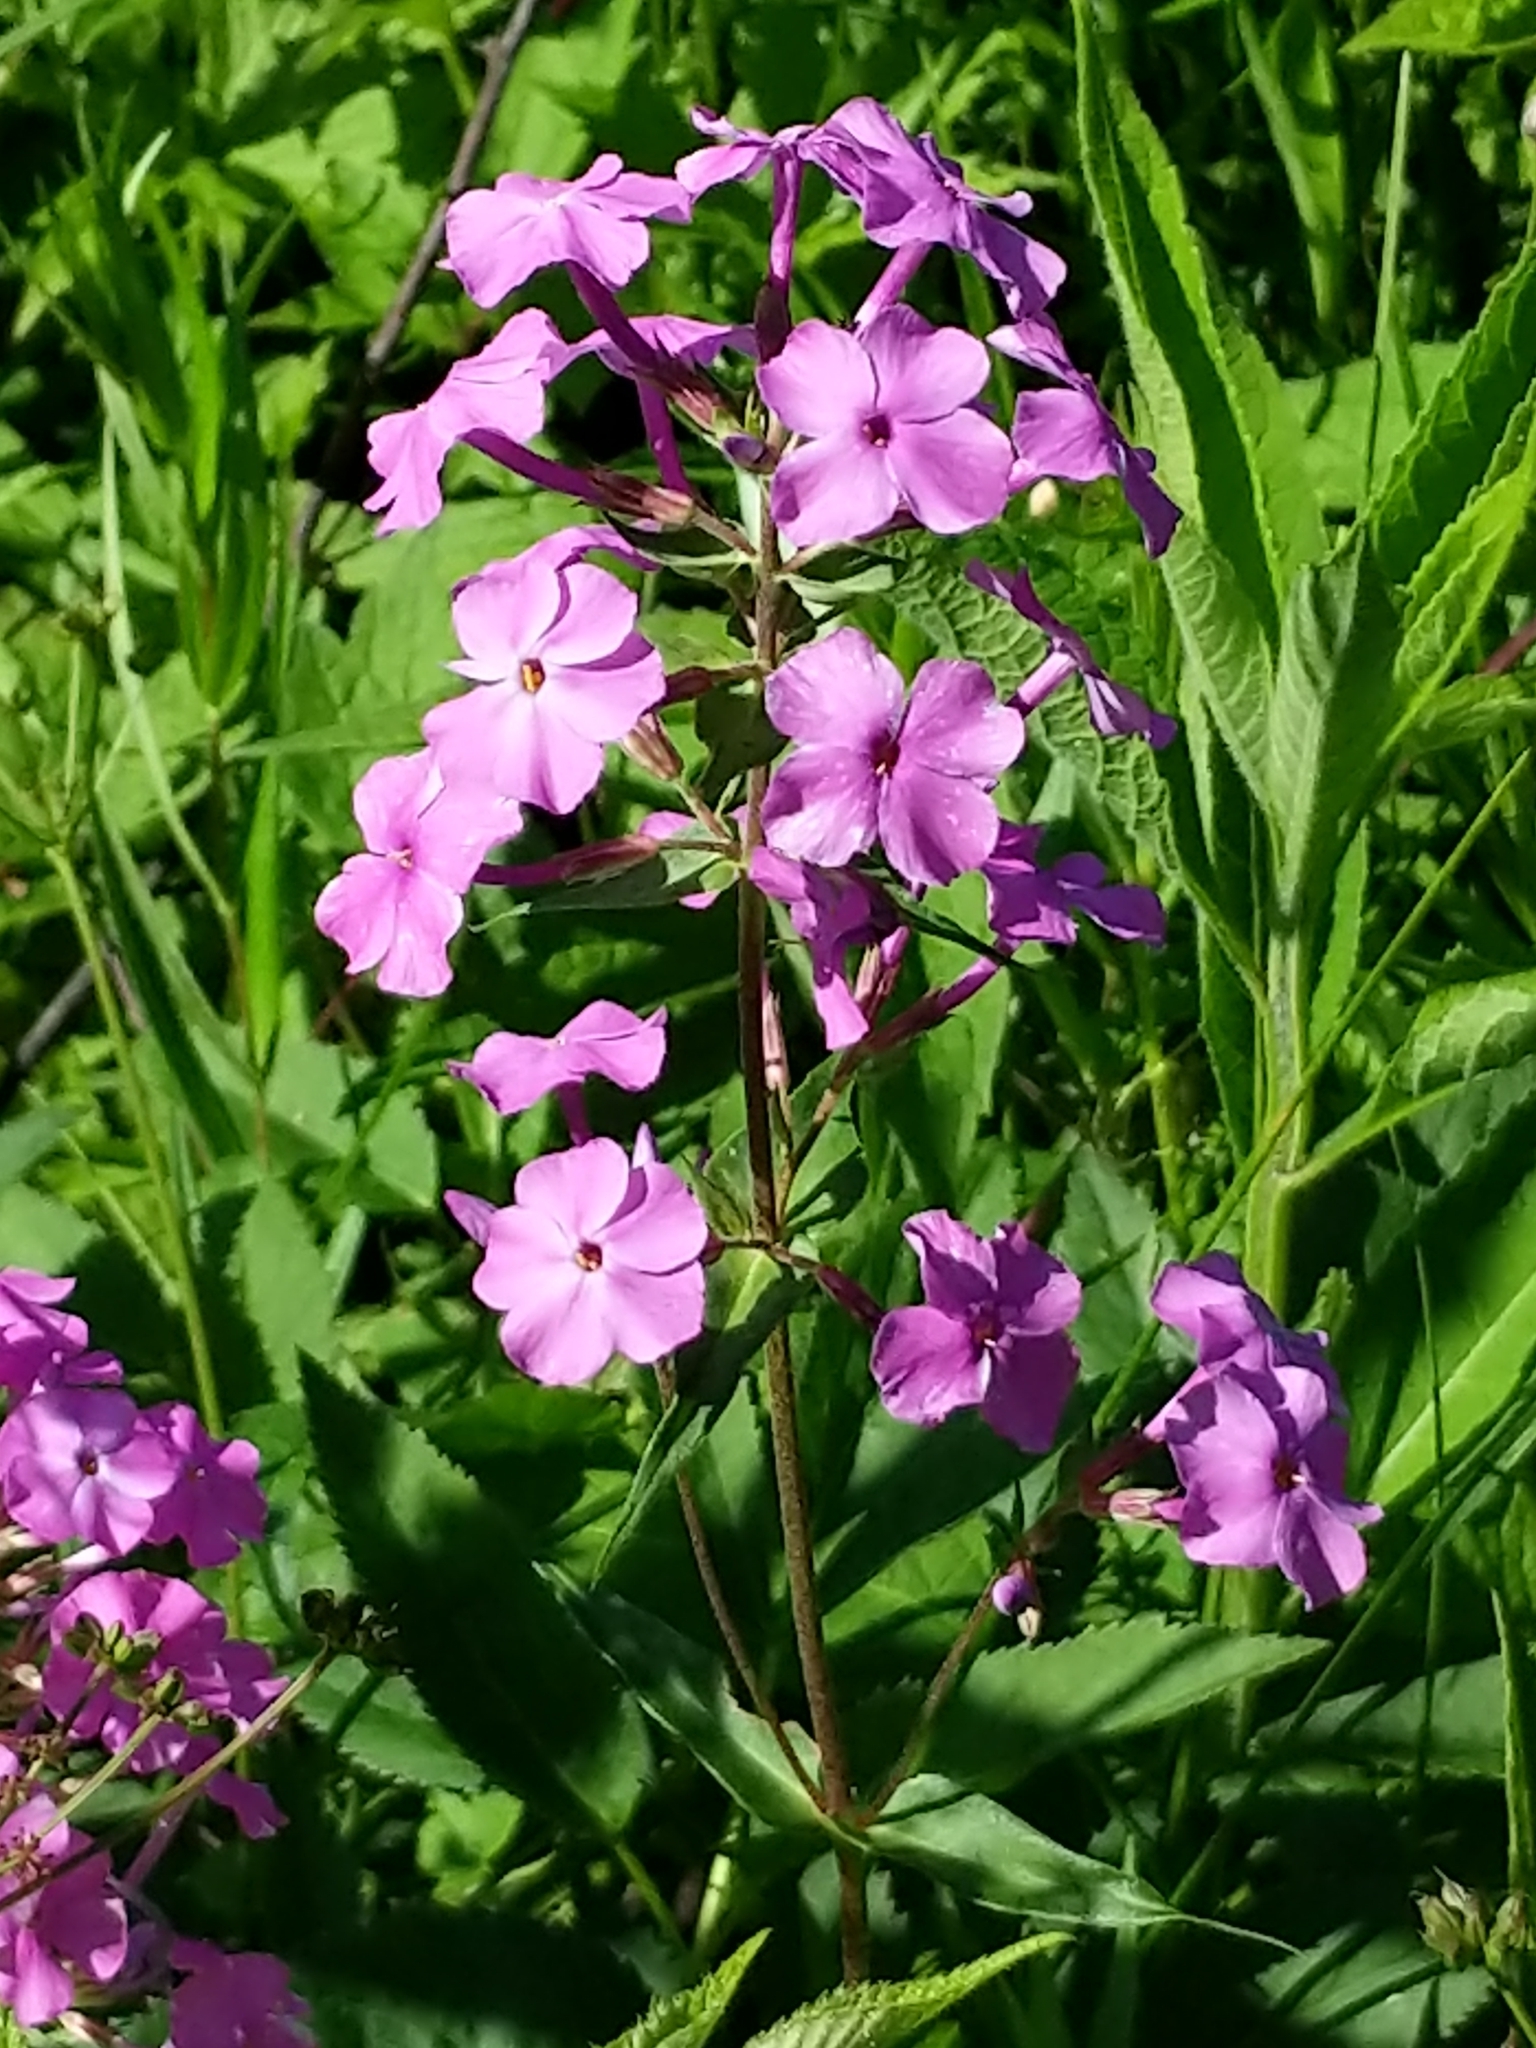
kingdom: Plantae
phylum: Tracheophyta
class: Magnoliopsida
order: Ericales
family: Polemoniaceae
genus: Phlox
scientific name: Phlox maculata
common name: Meadow phlox
